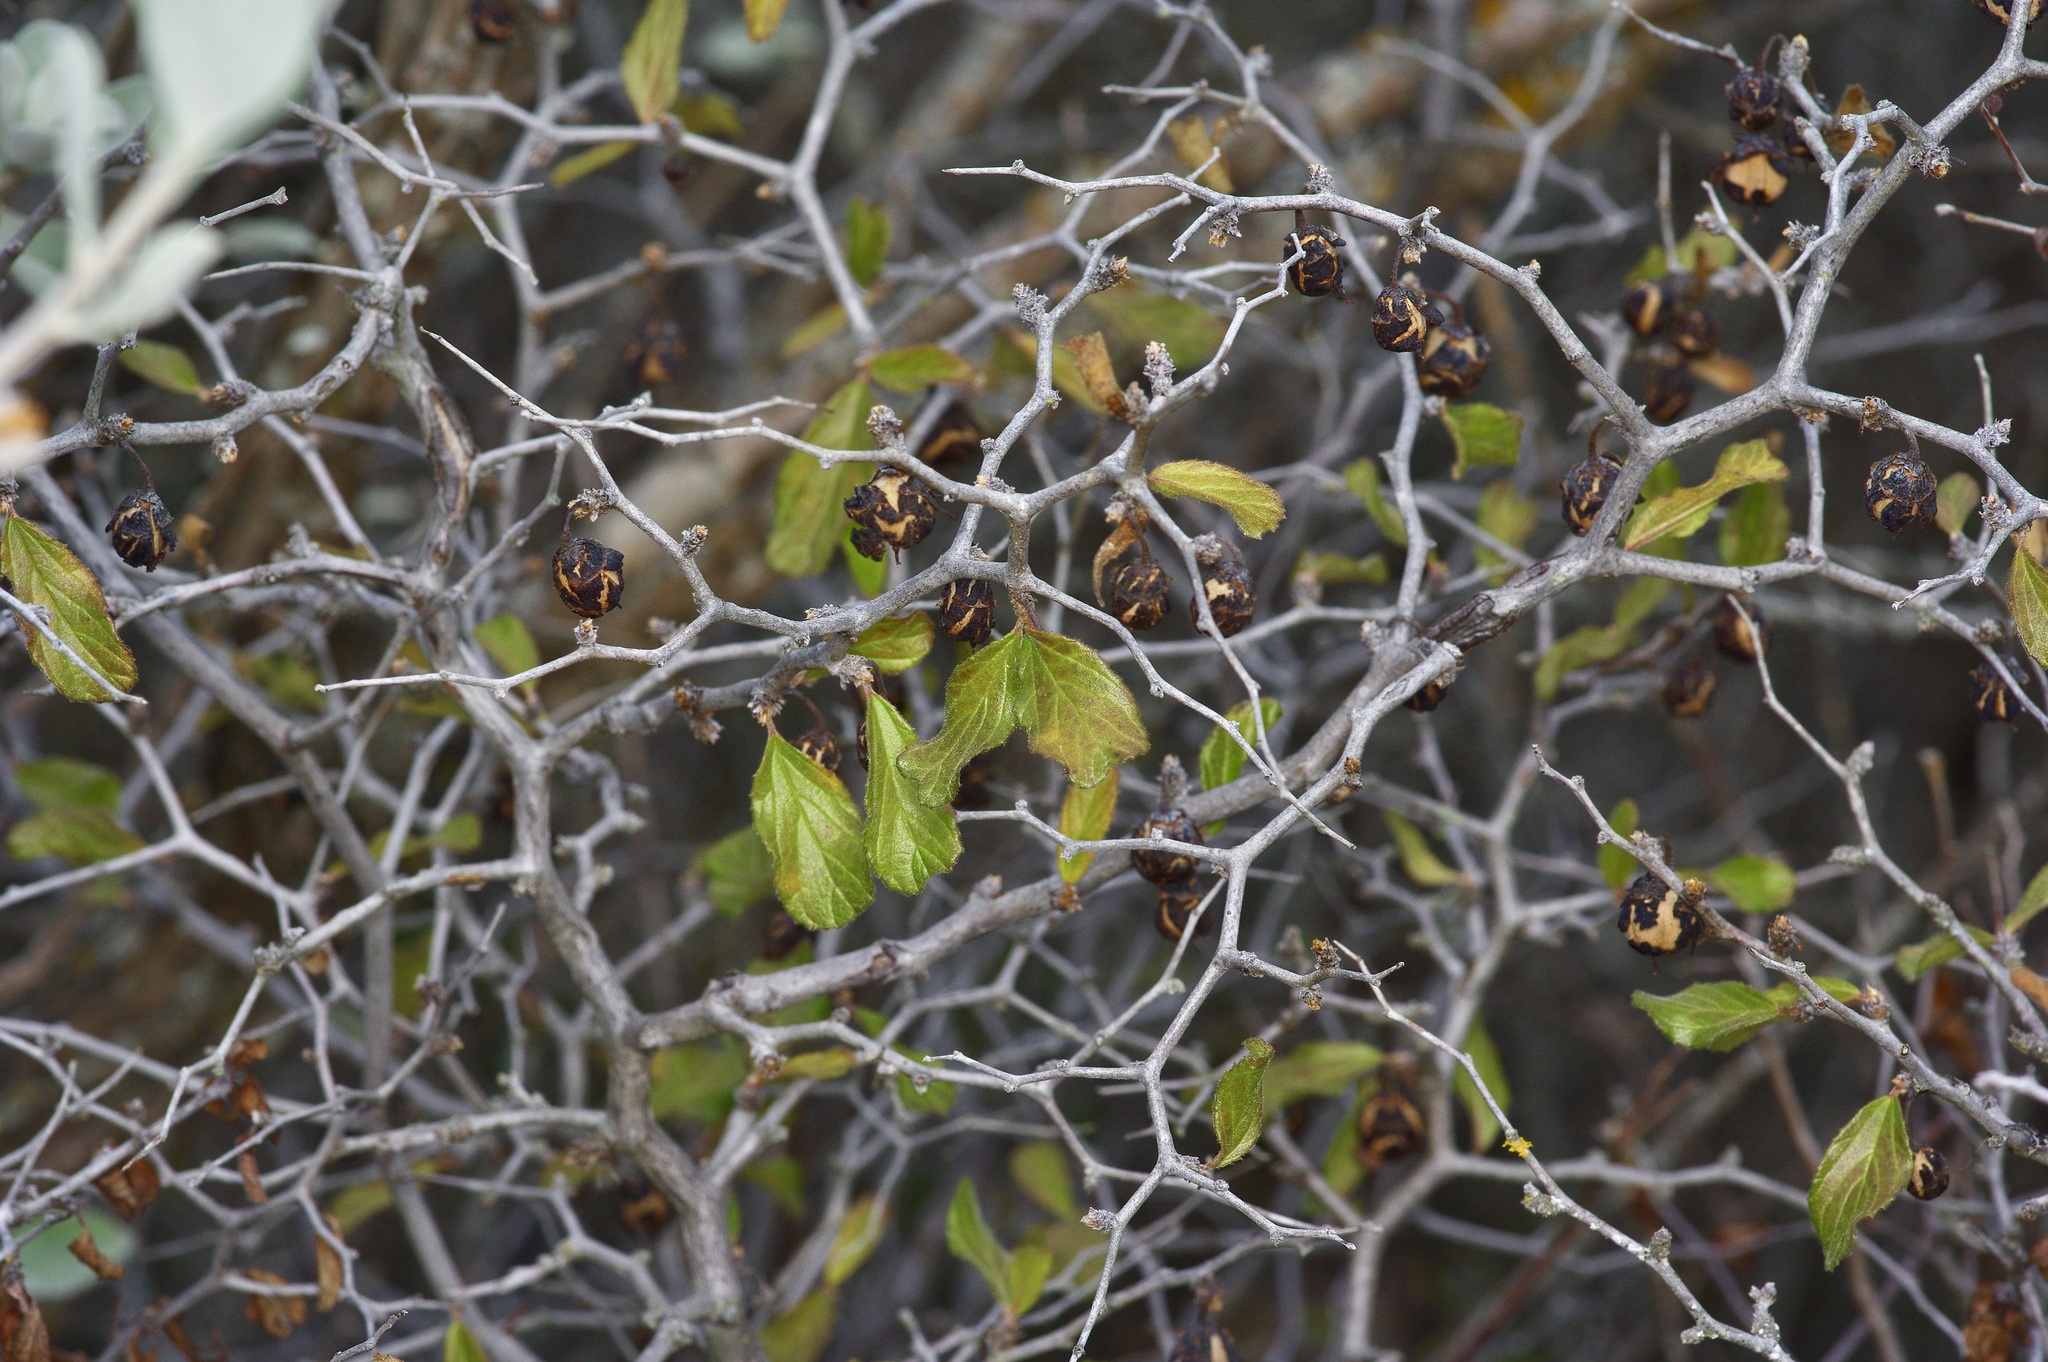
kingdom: Plantae
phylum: Tracheophyta
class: Magnoliopsida
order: Rosales
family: Rhamnaceae
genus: Colubrina
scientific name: Colubrina texensis
